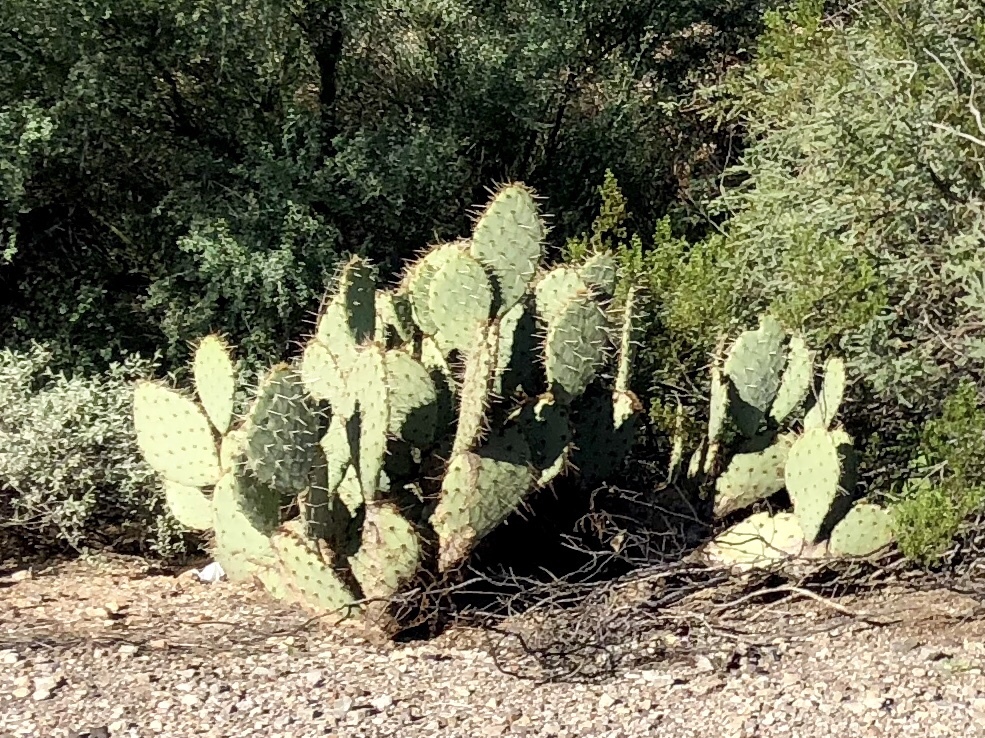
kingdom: Plantae
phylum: Tracheophyta
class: Magnoliopsida
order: Caryophyllales
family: Cactaceae
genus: Opuntia
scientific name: Opuntia engelmannii
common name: Cactus-apple
